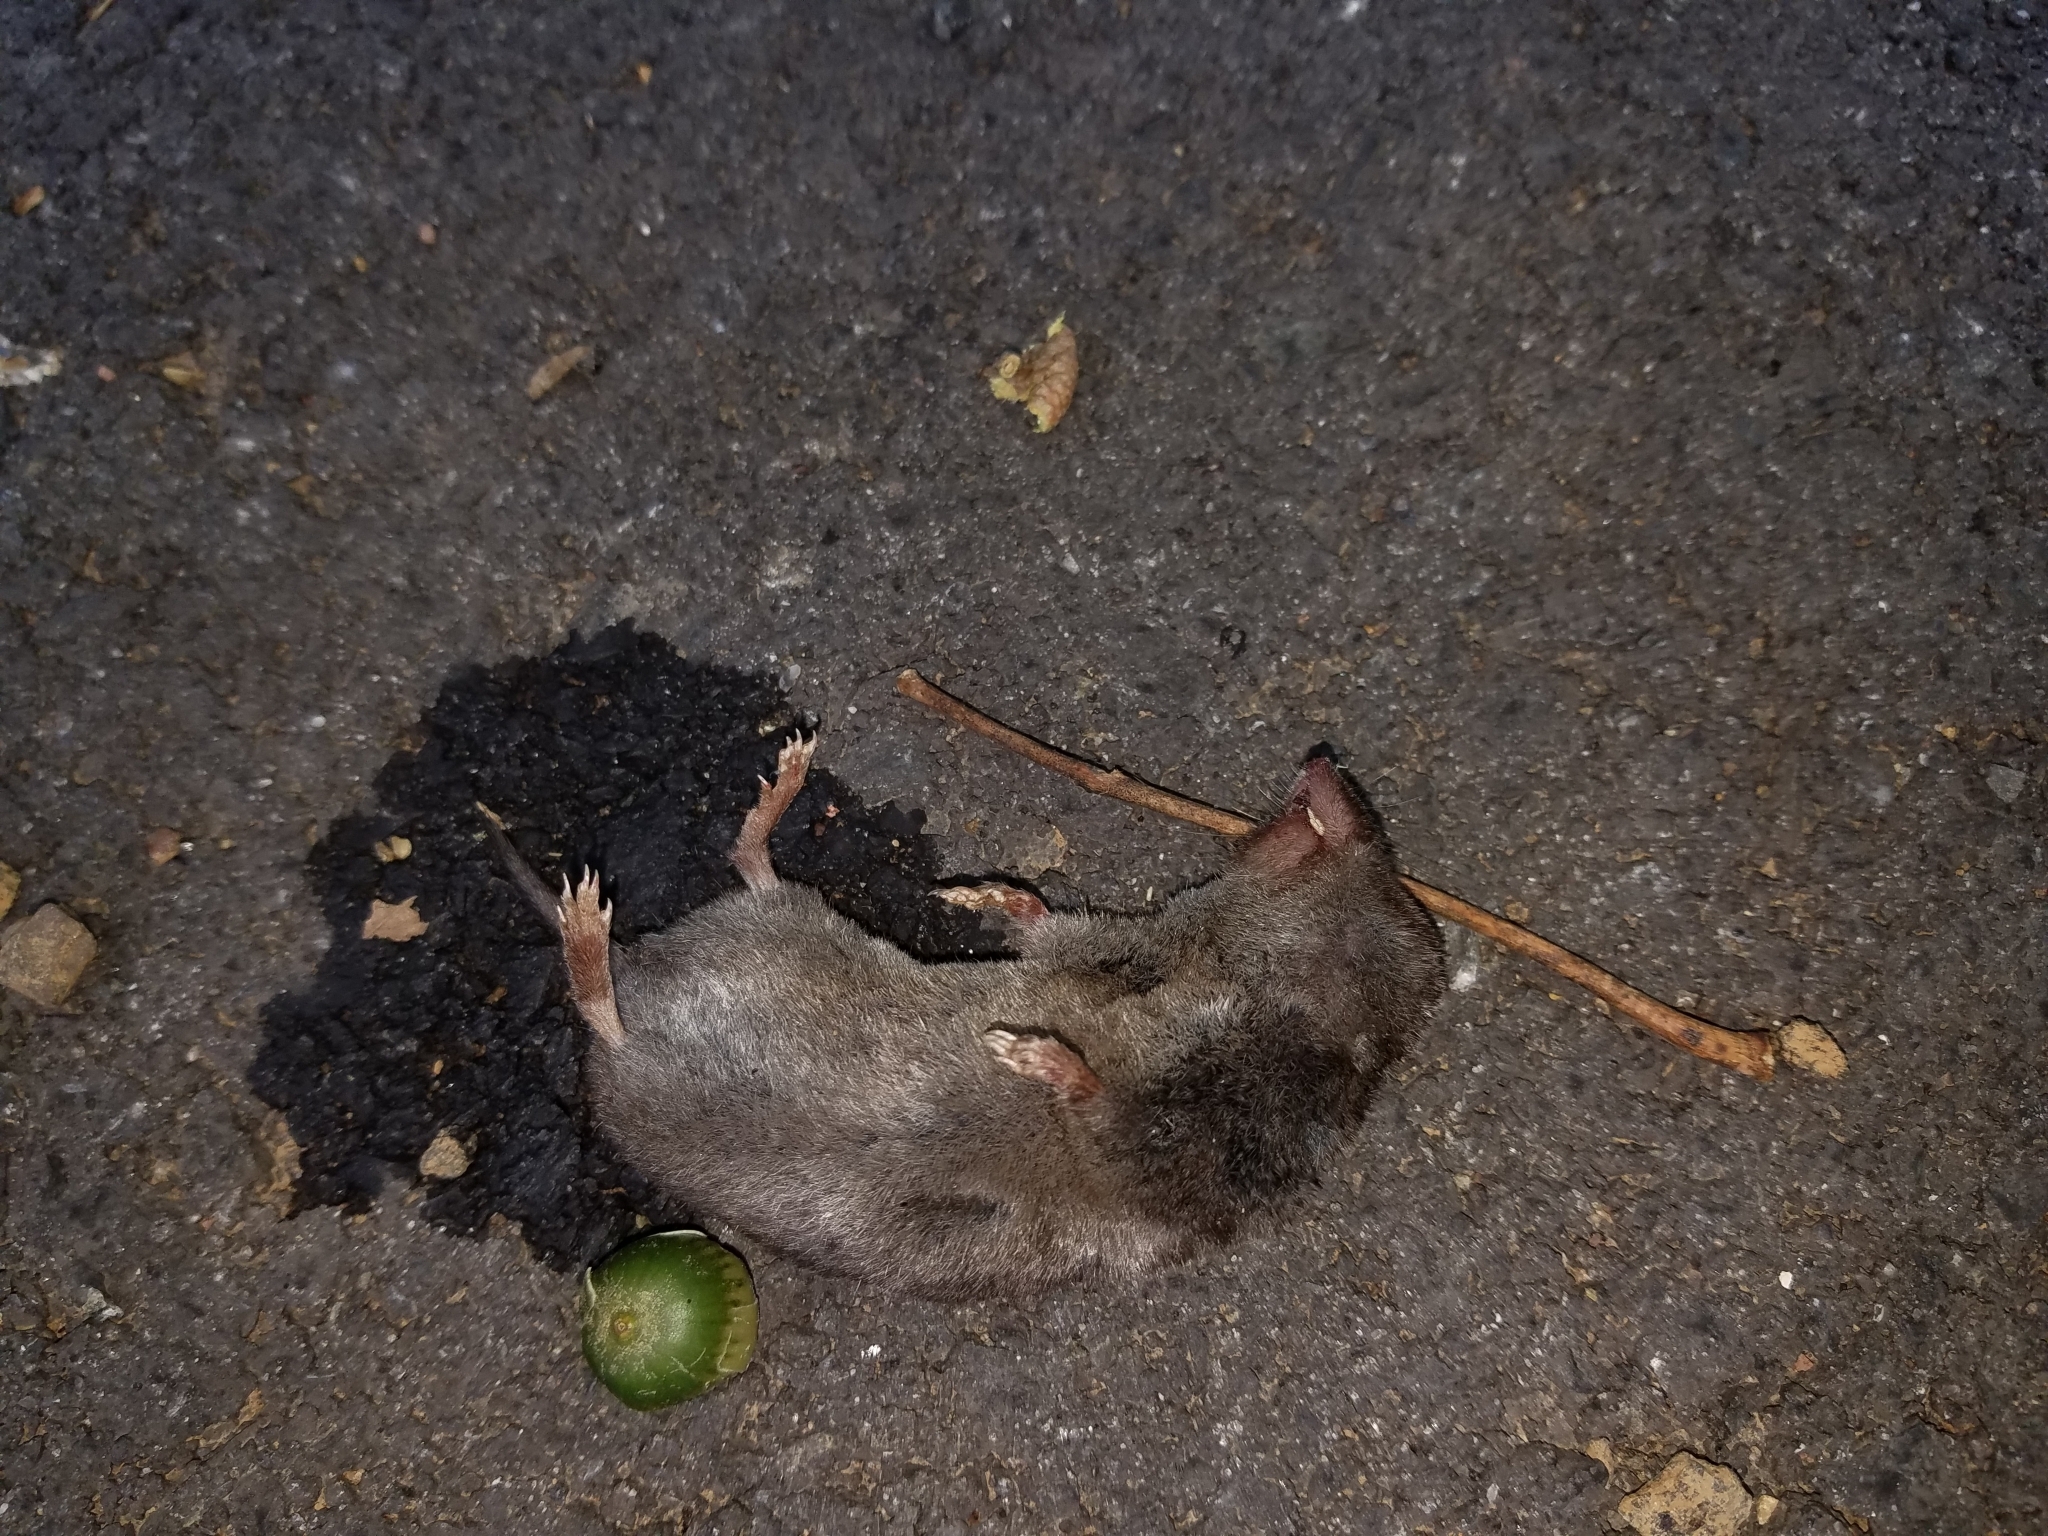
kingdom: Animalia
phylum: Chordata
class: Mammalia
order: Soricomorpha
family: Soricidae
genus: Blarina
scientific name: Blarina brevicauda
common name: Northern short-tailed shrew
